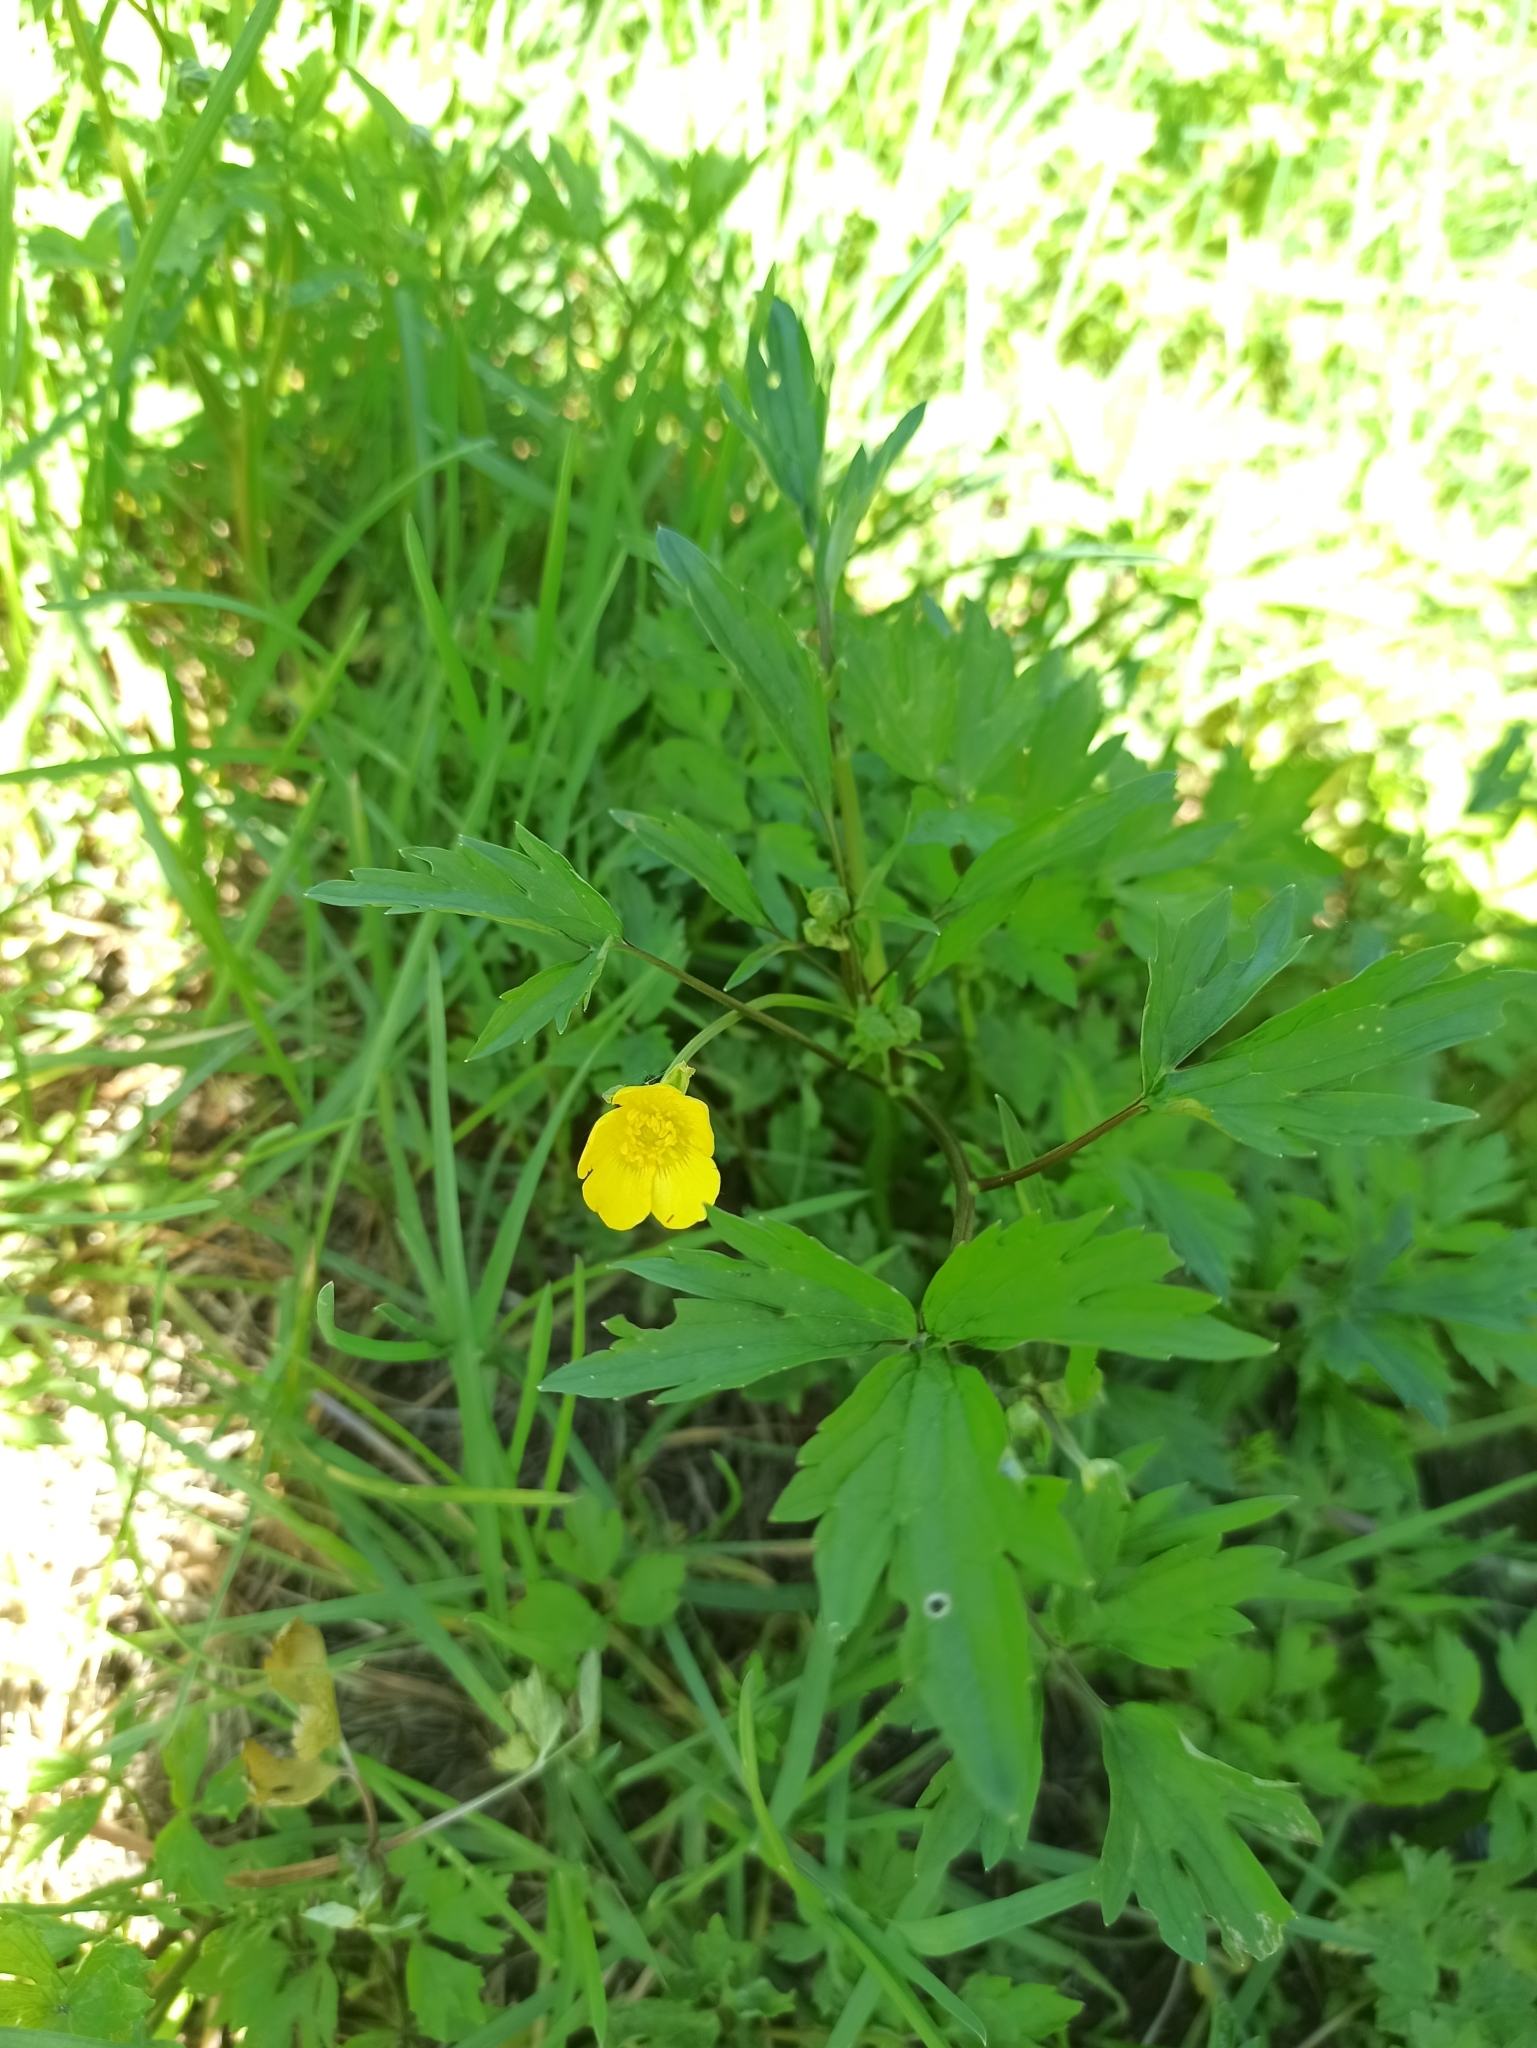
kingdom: Plantae
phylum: Tracheophyta
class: Magnoliopsida
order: Ranunculales
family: Ranunculaceae
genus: Ranunculus
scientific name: Ranunculus repens
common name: Creeping buttercup
